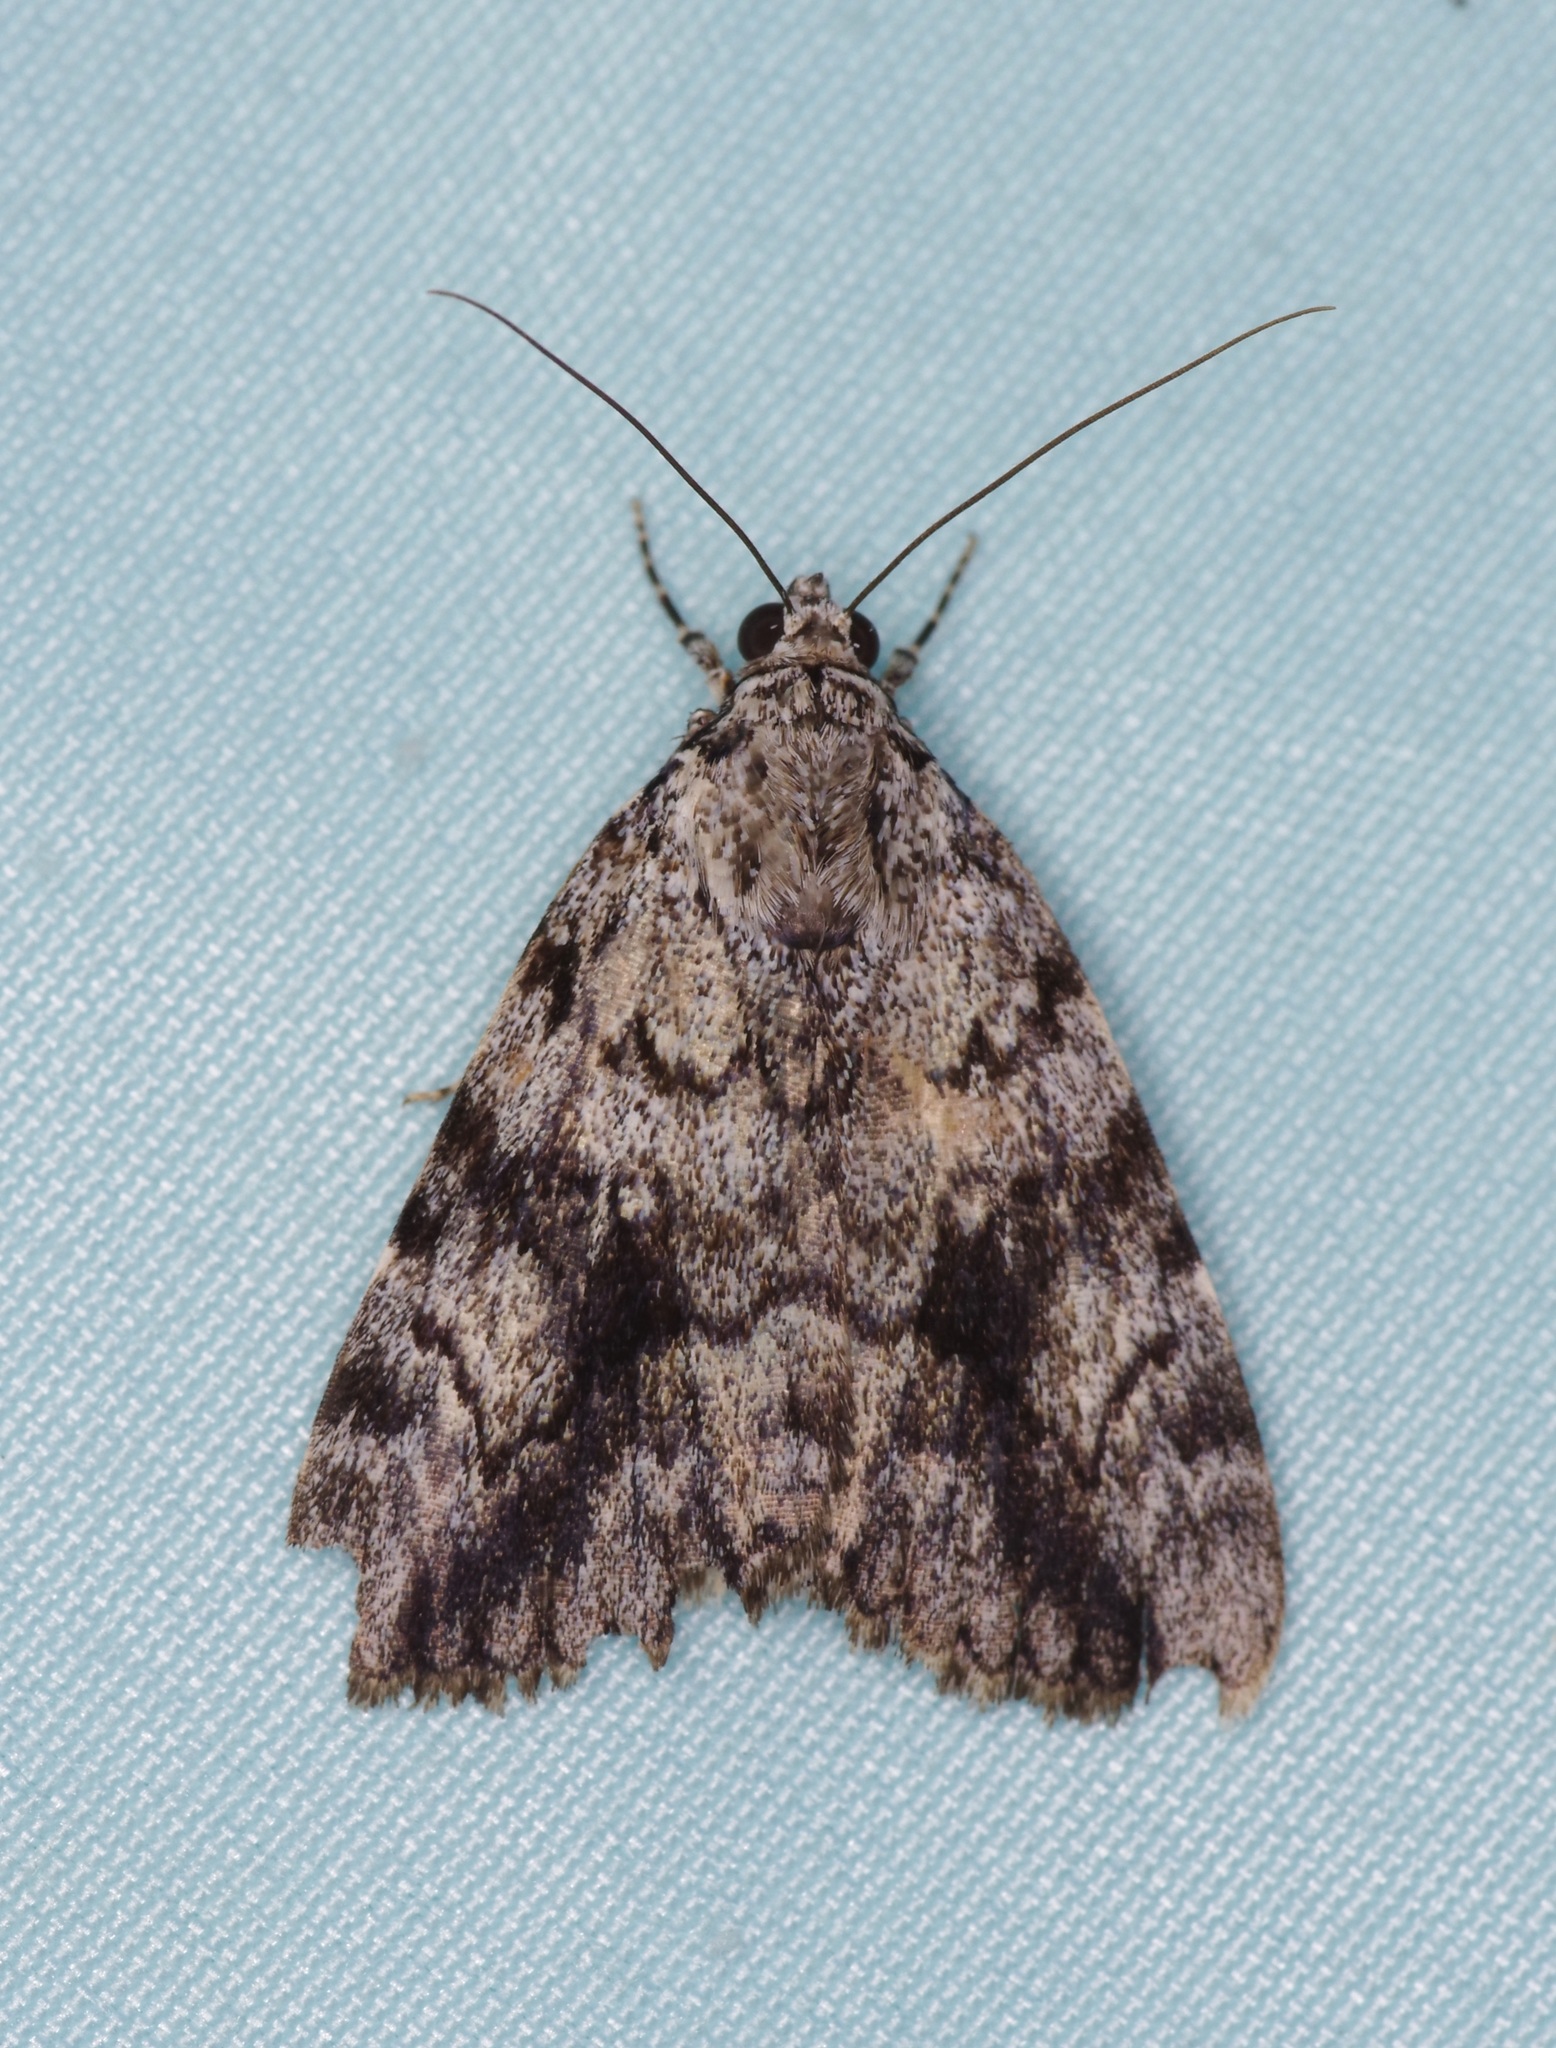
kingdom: Animalia
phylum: Arthropoda
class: Insecta
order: Lepidoptera
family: Erebidae
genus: Catocala
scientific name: Catocala amica
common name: Girlfriend underwing
